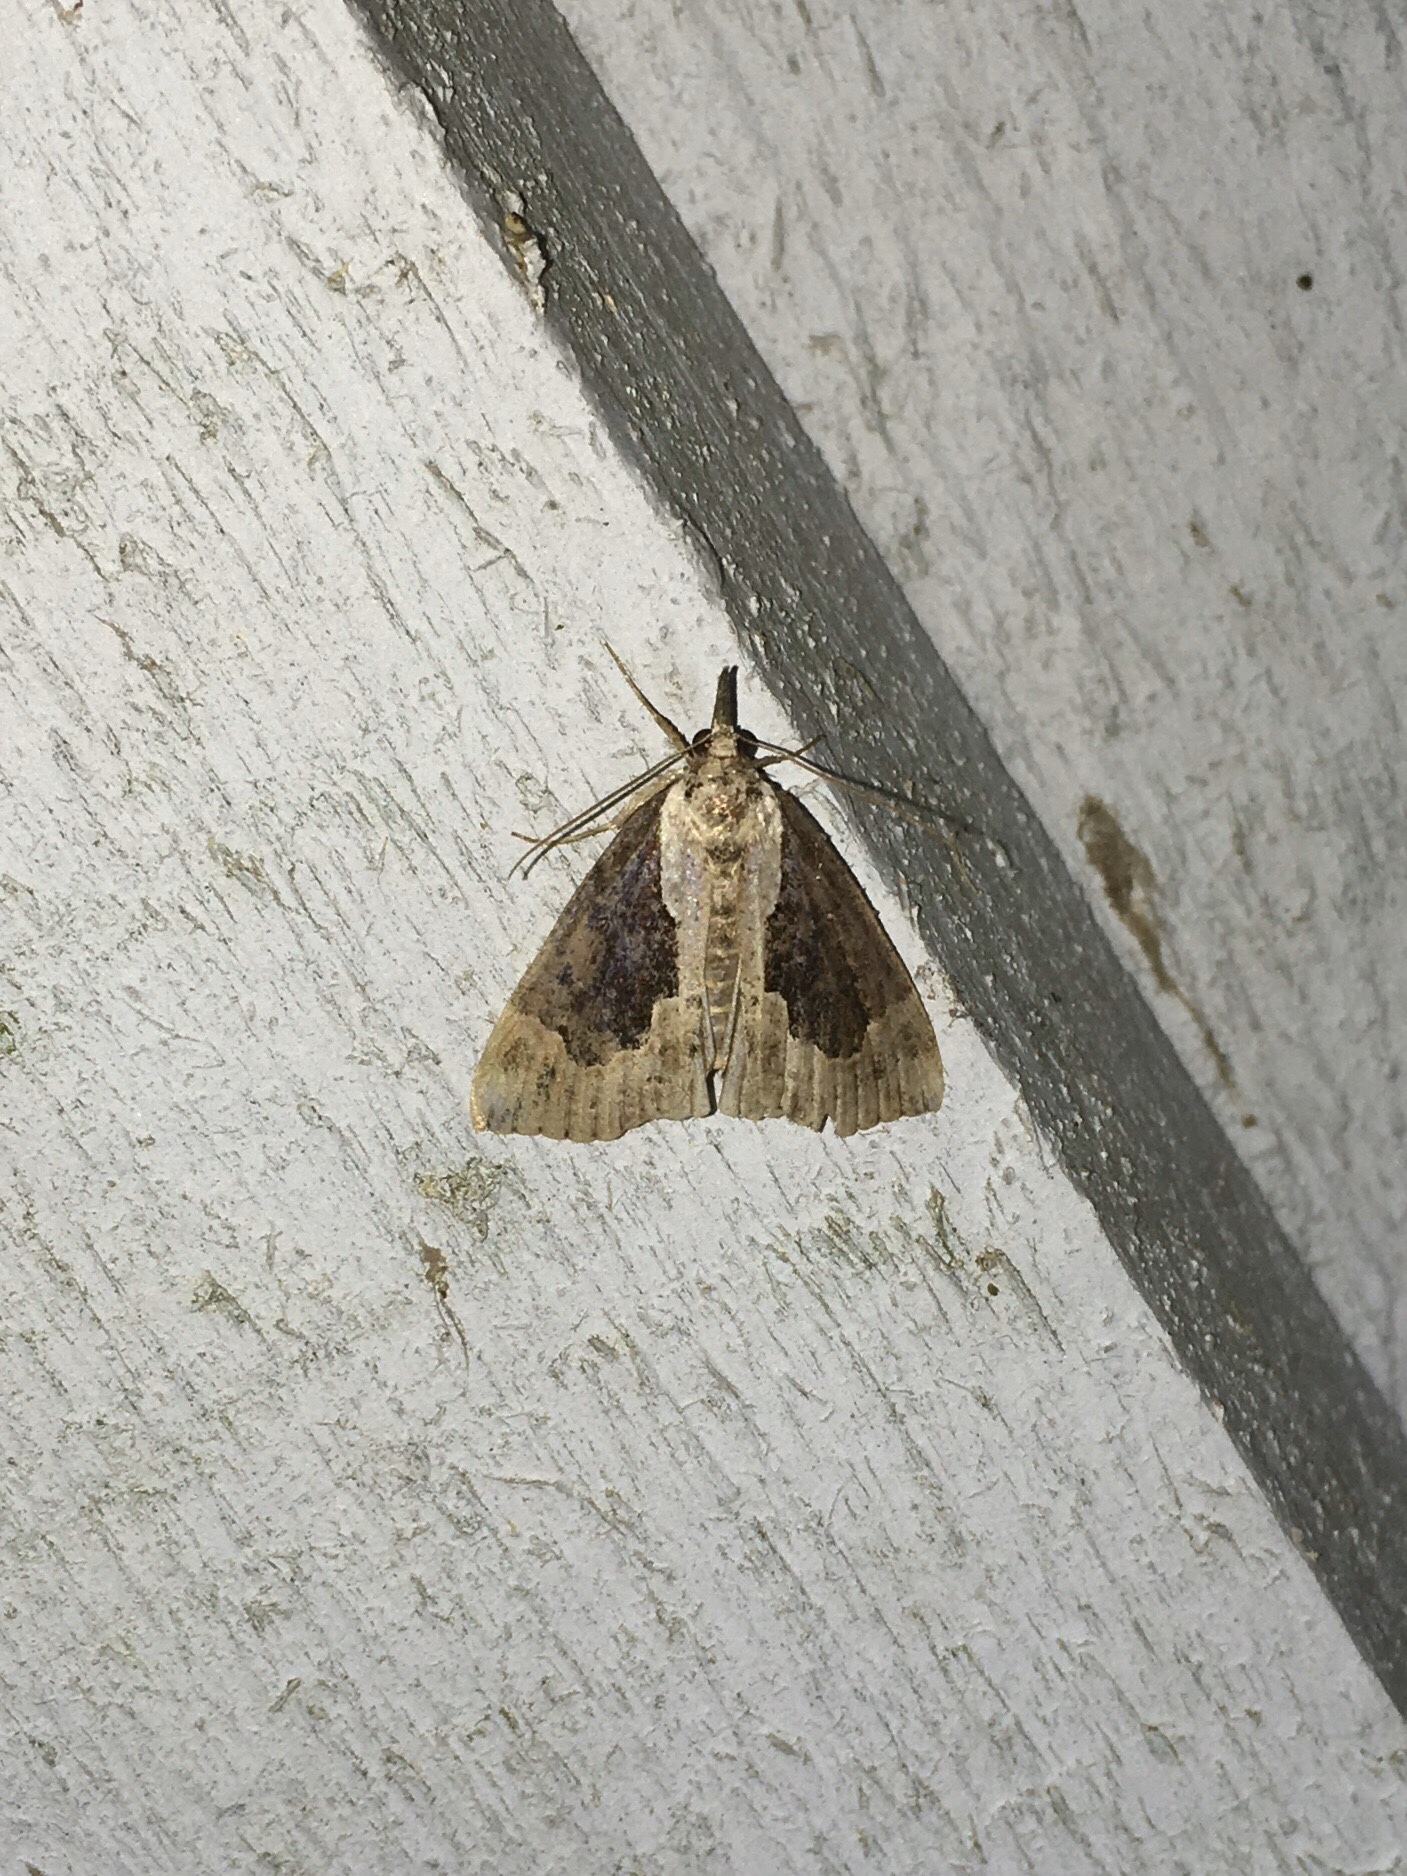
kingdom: Animalia
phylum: Arthropoda
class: Insecta
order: Lepidoptera
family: Erebidae
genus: Hypena
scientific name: Hypena baltimoralis
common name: Baltimore snout
